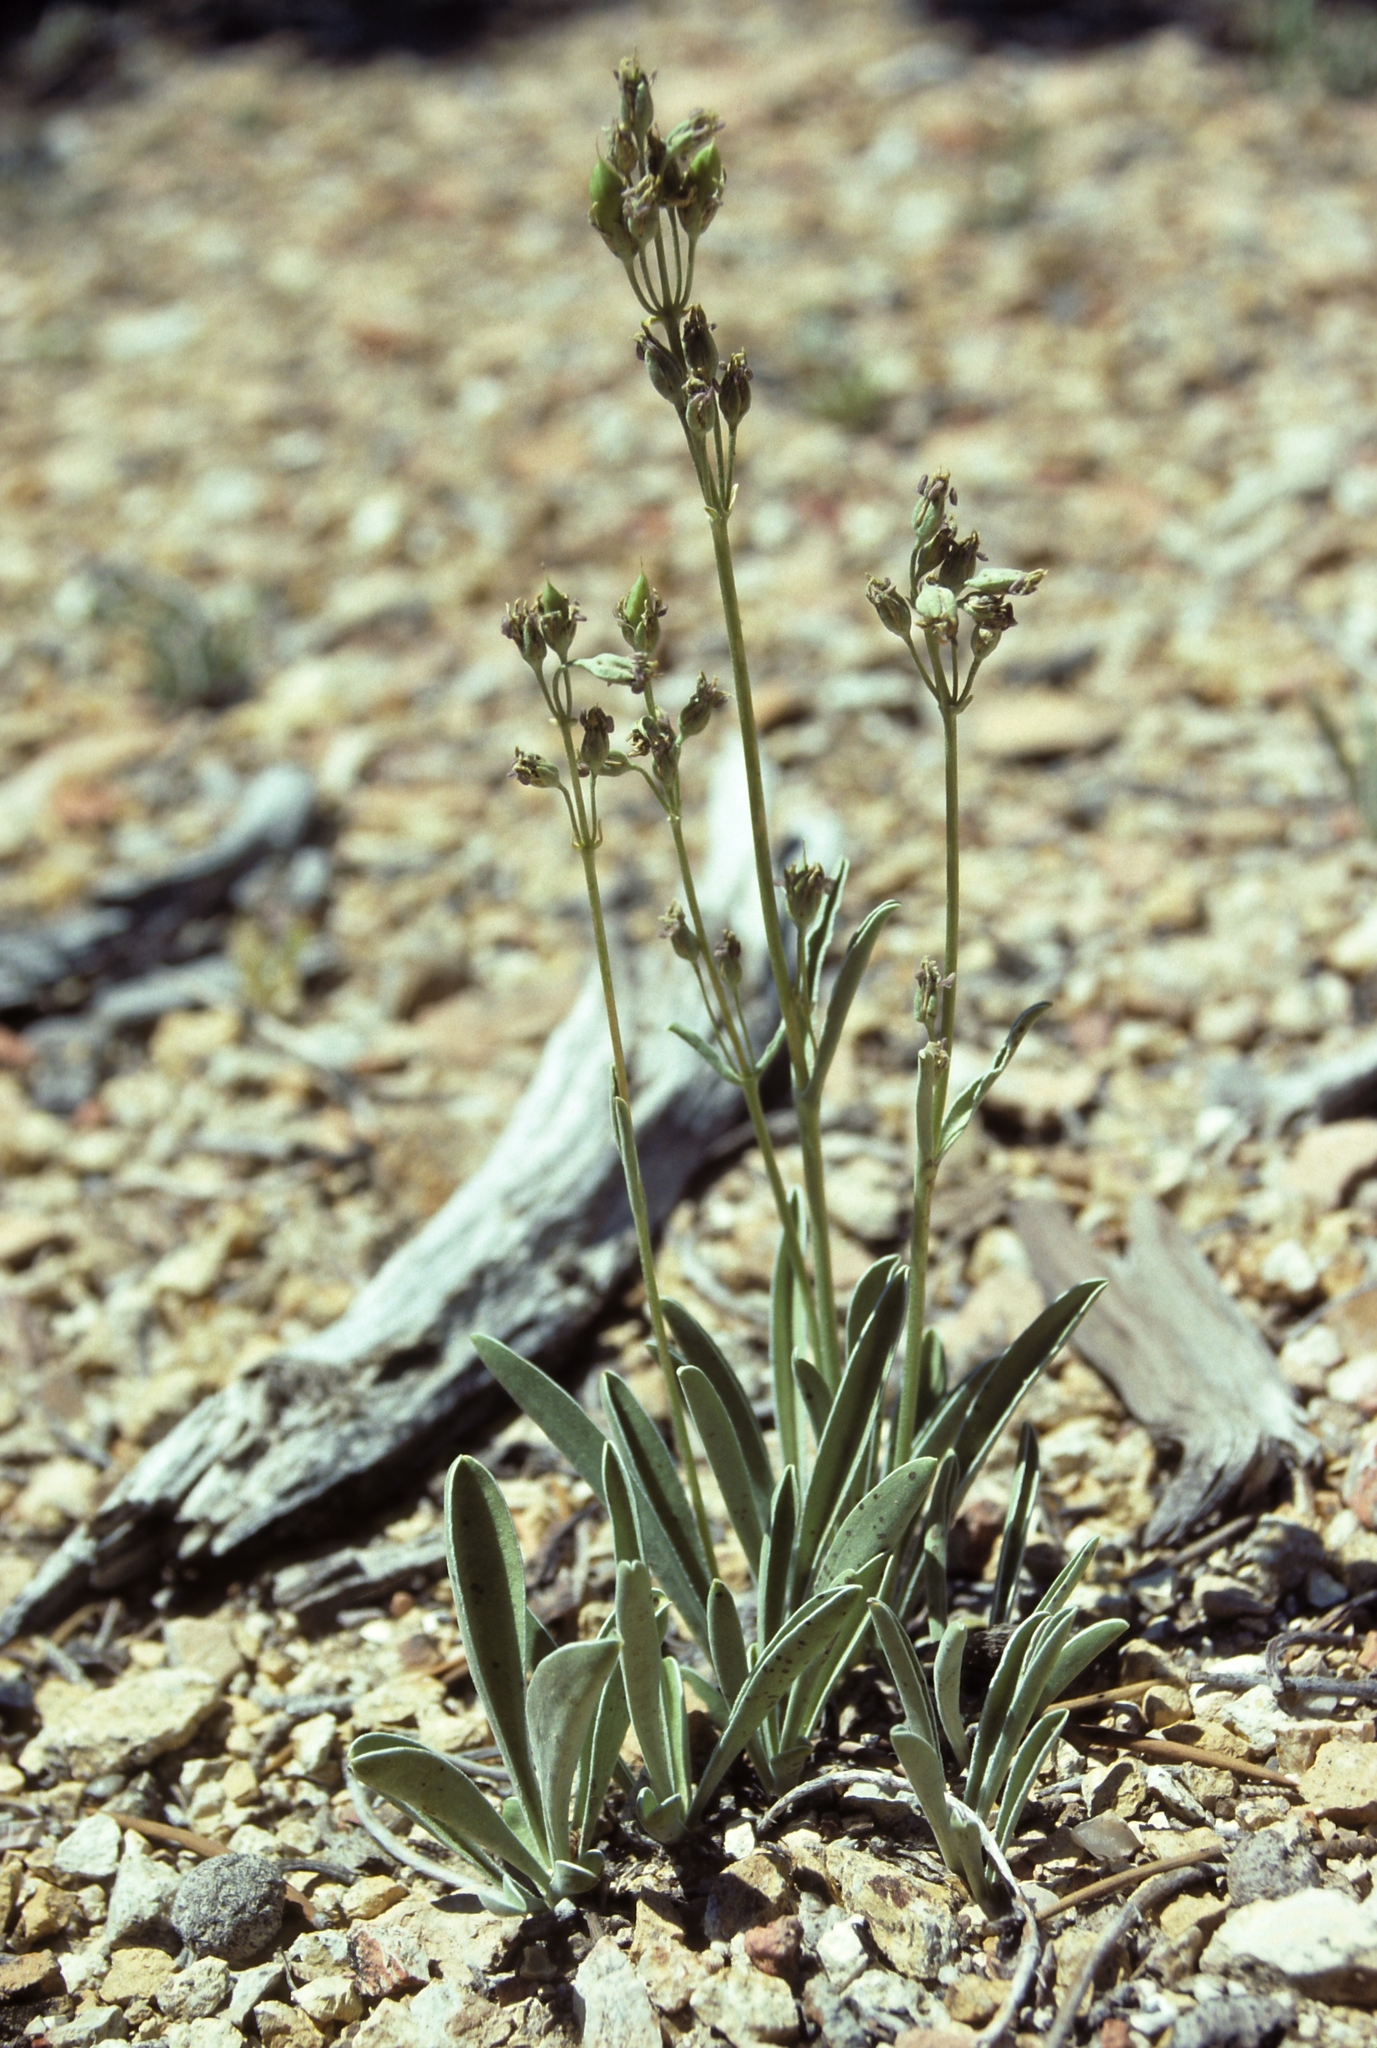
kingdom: Plantae
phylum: Tracheophyta
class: Magnoliopsida
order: Gentianales
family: Gentianaceae
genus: Frasera
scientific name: Frasera albicaulis
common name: Cusick's frasera
